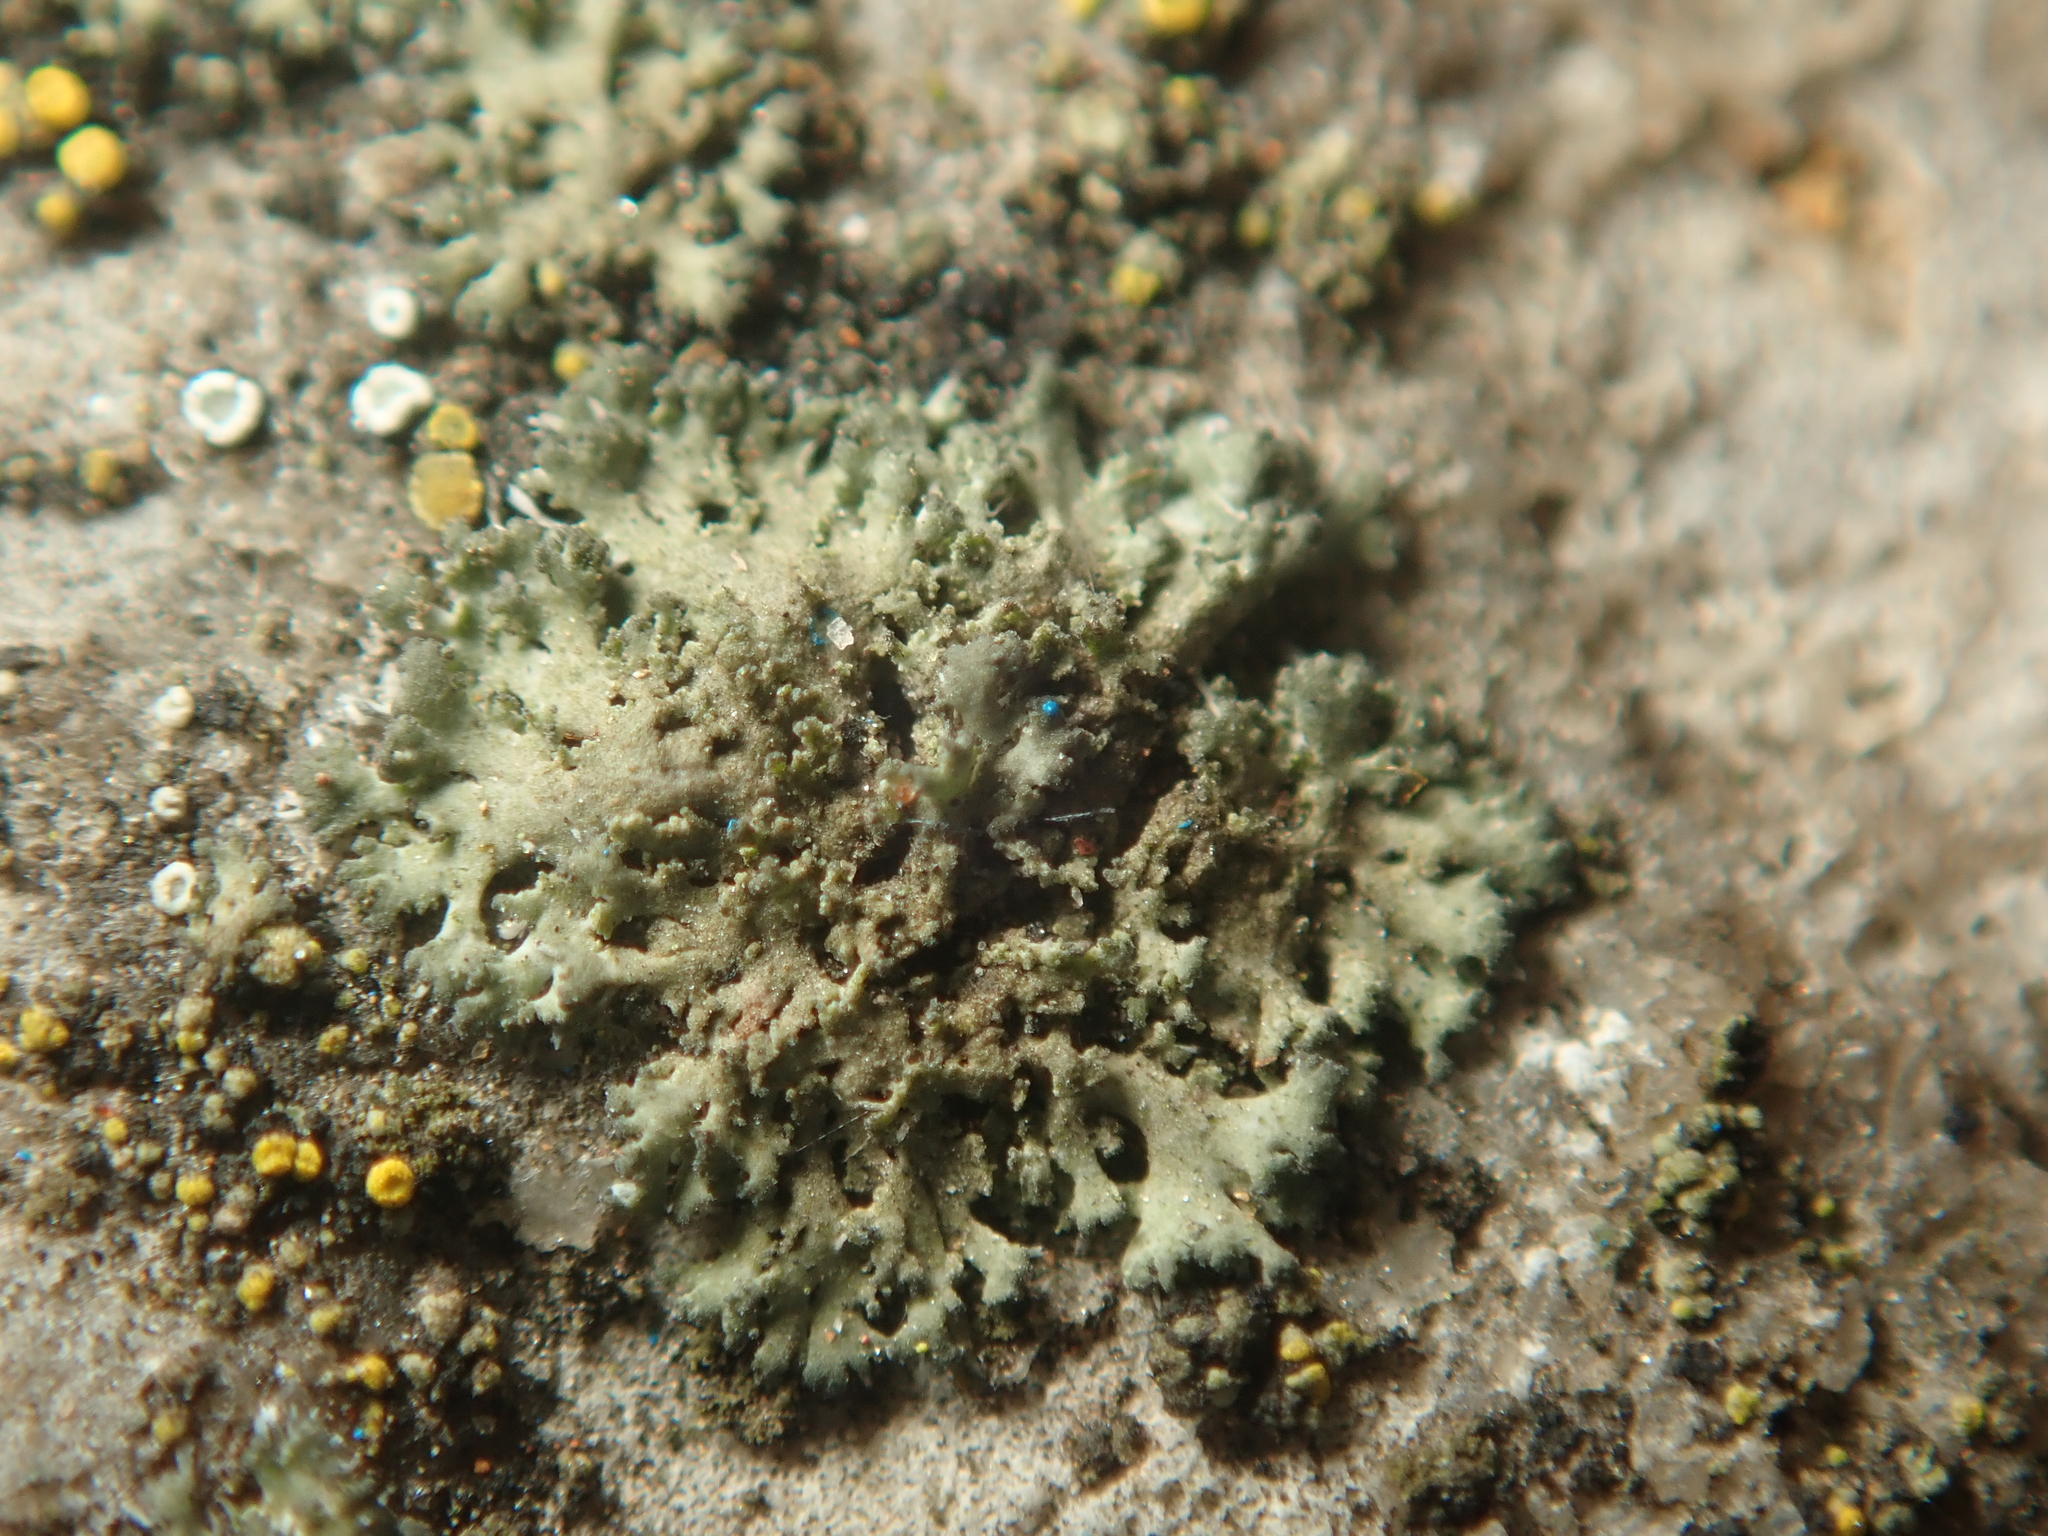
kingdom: Fungi
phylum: Ascomycota
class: Lecanoromycetes
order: Caliciales
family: Physciaceae
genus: Physciella
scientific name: Physciella nigricans
